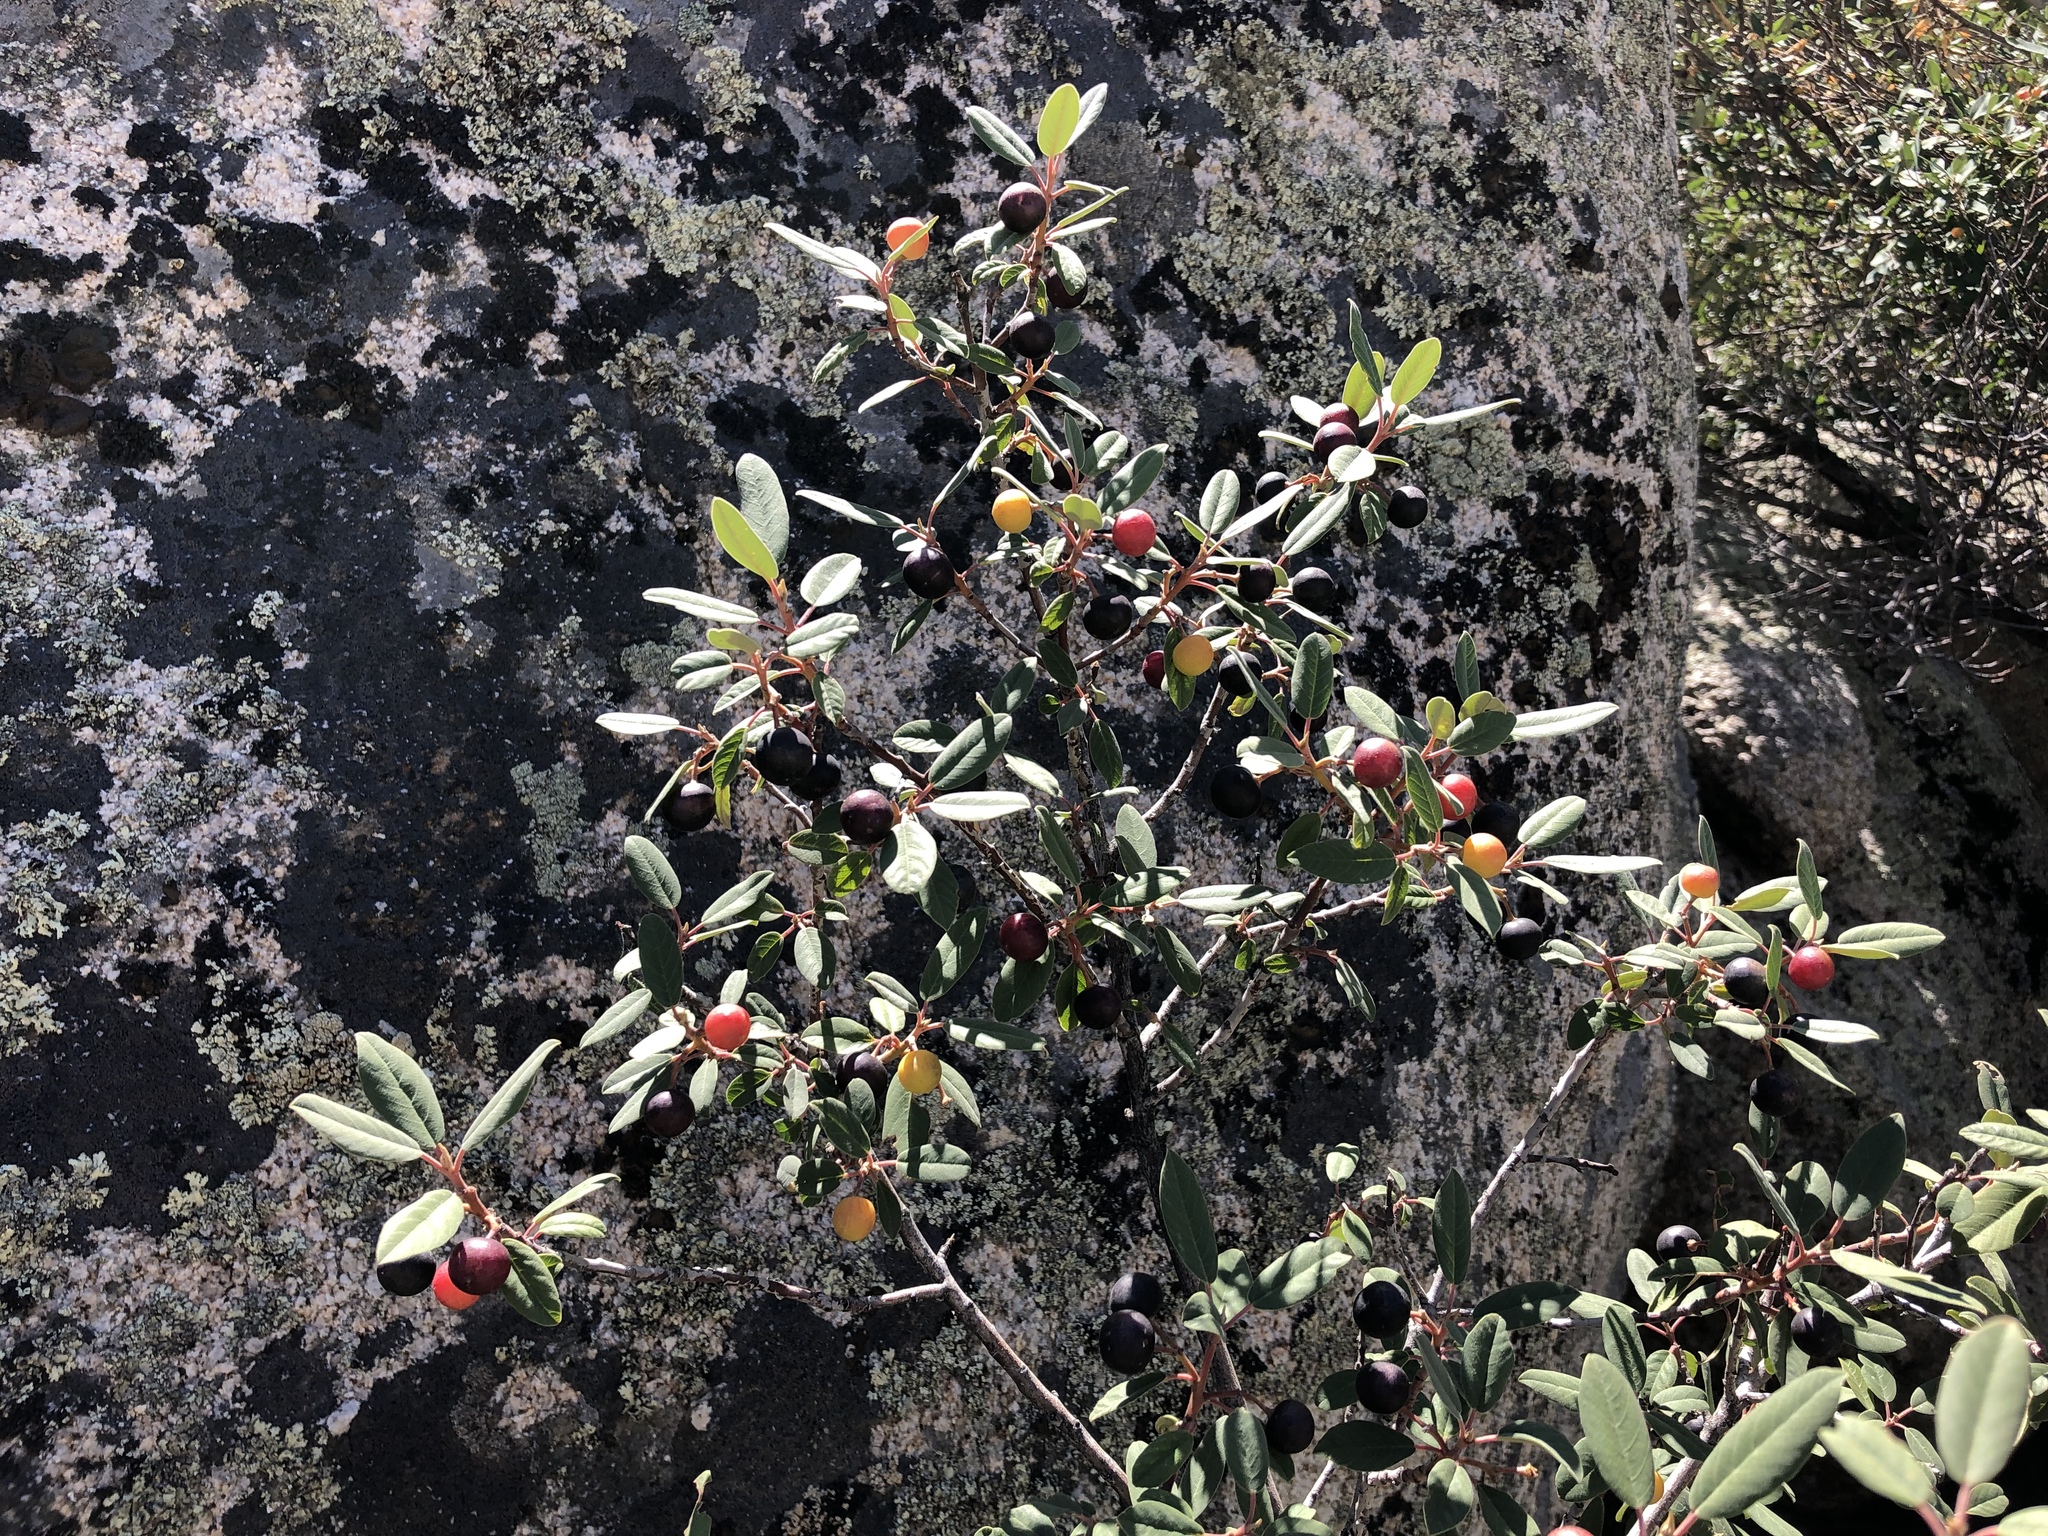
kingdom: Plantae
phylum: Tracheophyta
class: Magnoliopsida
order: Rosales
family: Rhamnaceae
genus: Frangula
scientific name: Frangula californica
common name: California buckthorn
